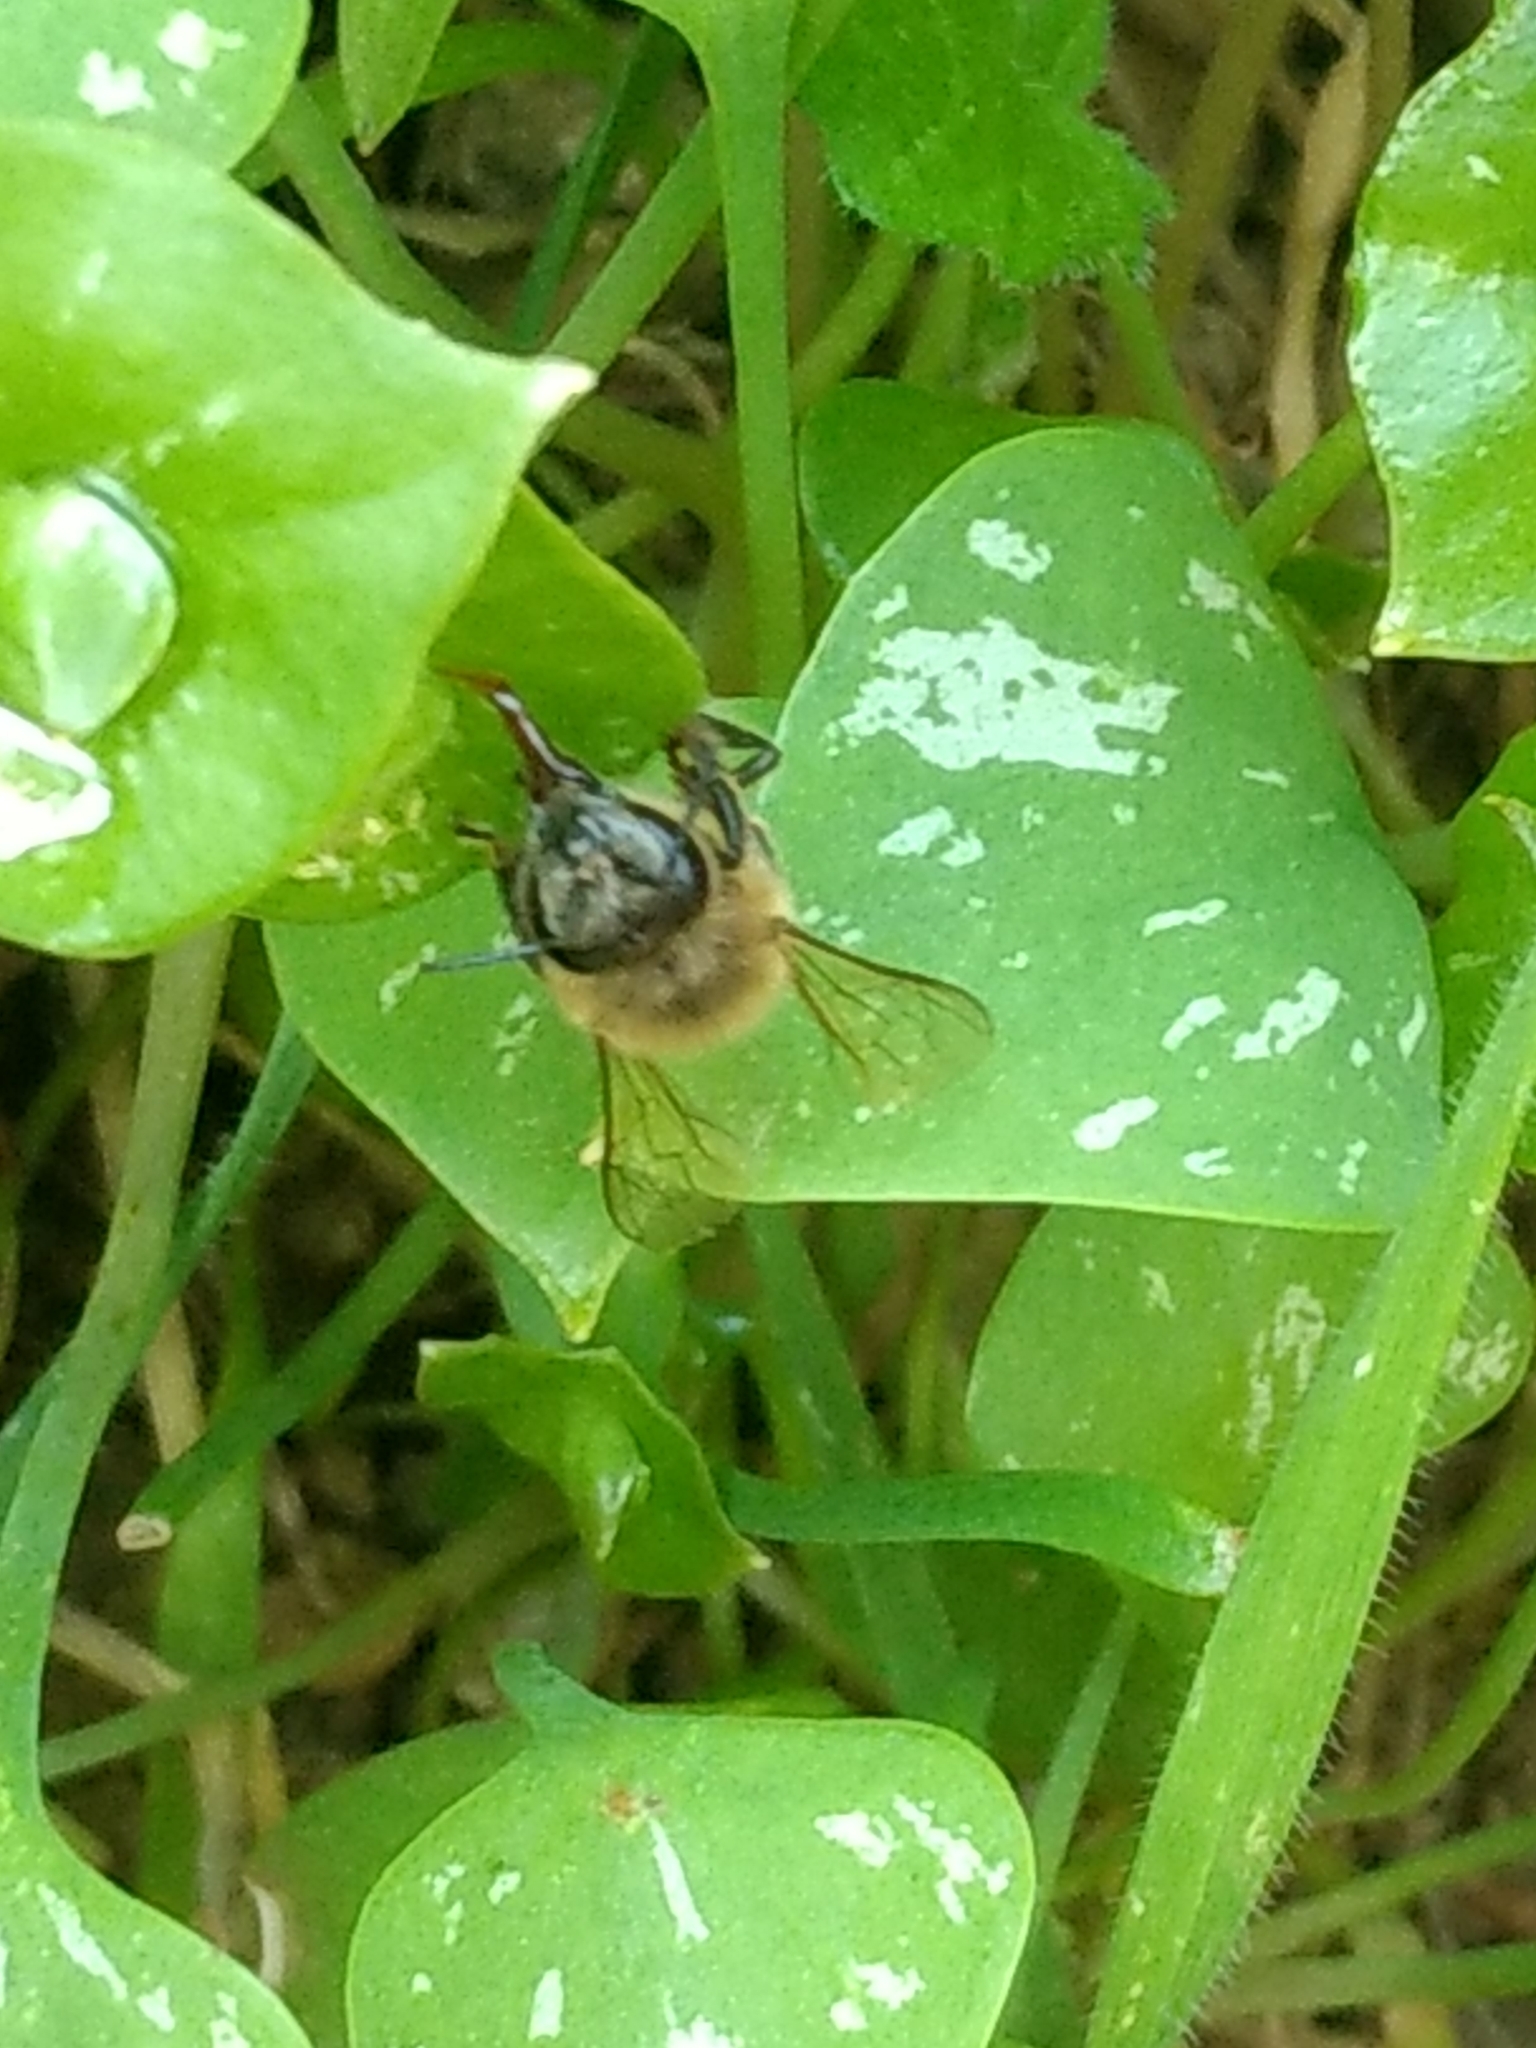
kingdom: Animalia
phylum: Arthropoda
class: Insecta
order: Hymenoptera
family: Apidae
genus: Apis
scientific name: Apis mellifera
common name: Honey bee
